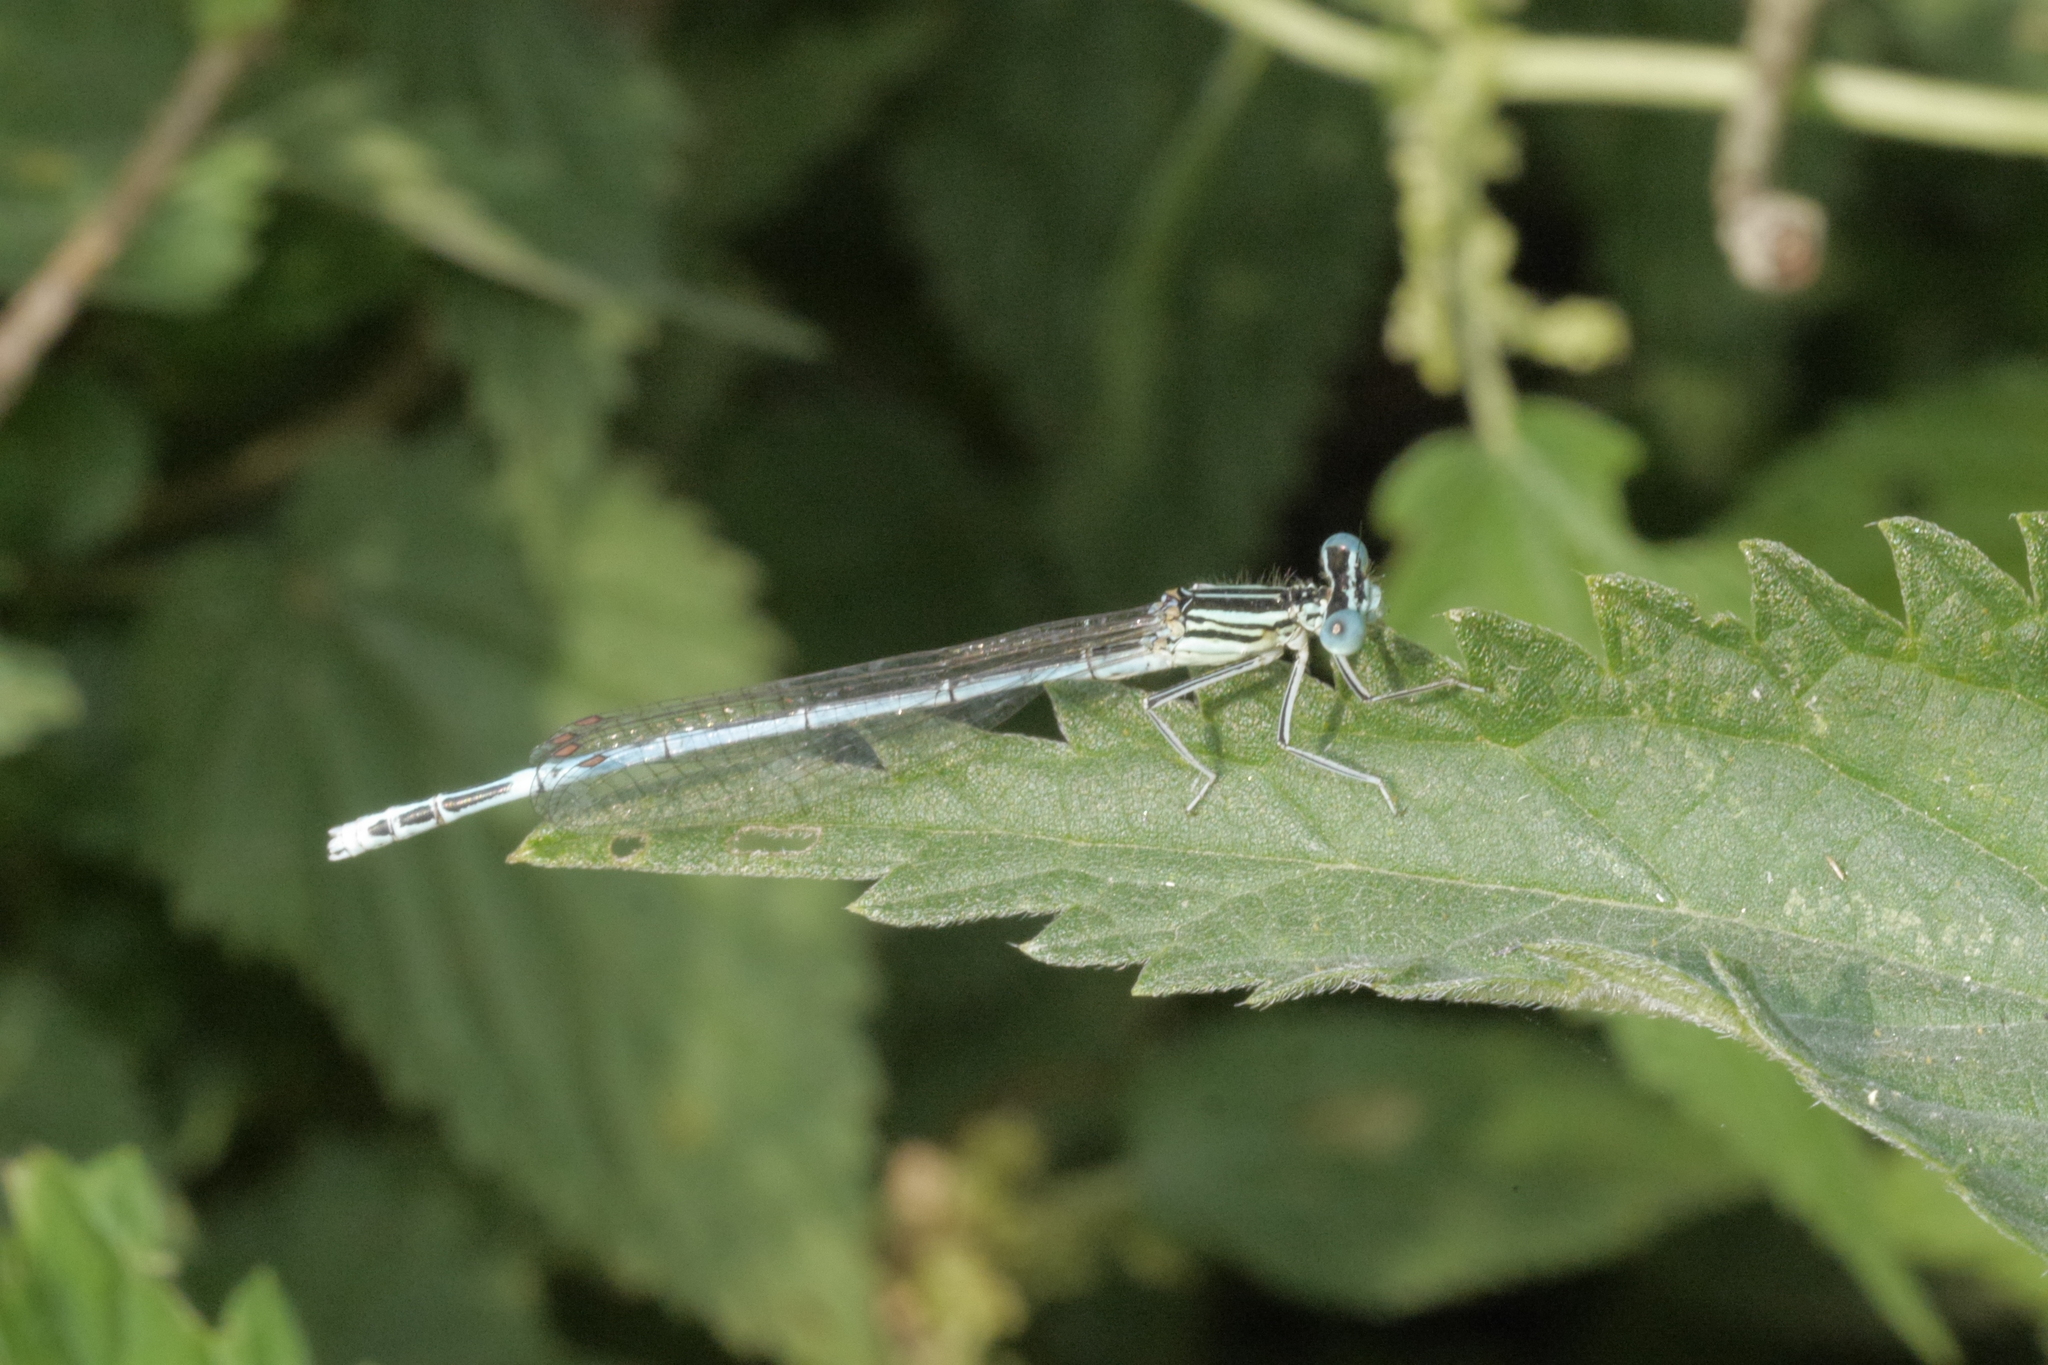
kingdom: Animalia
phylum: Arthropoda
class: Insecta
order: Odonata
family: Platycnemididae
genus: Platycnemis
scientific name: Platycnemis pennipes
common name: White-legged damselfly
